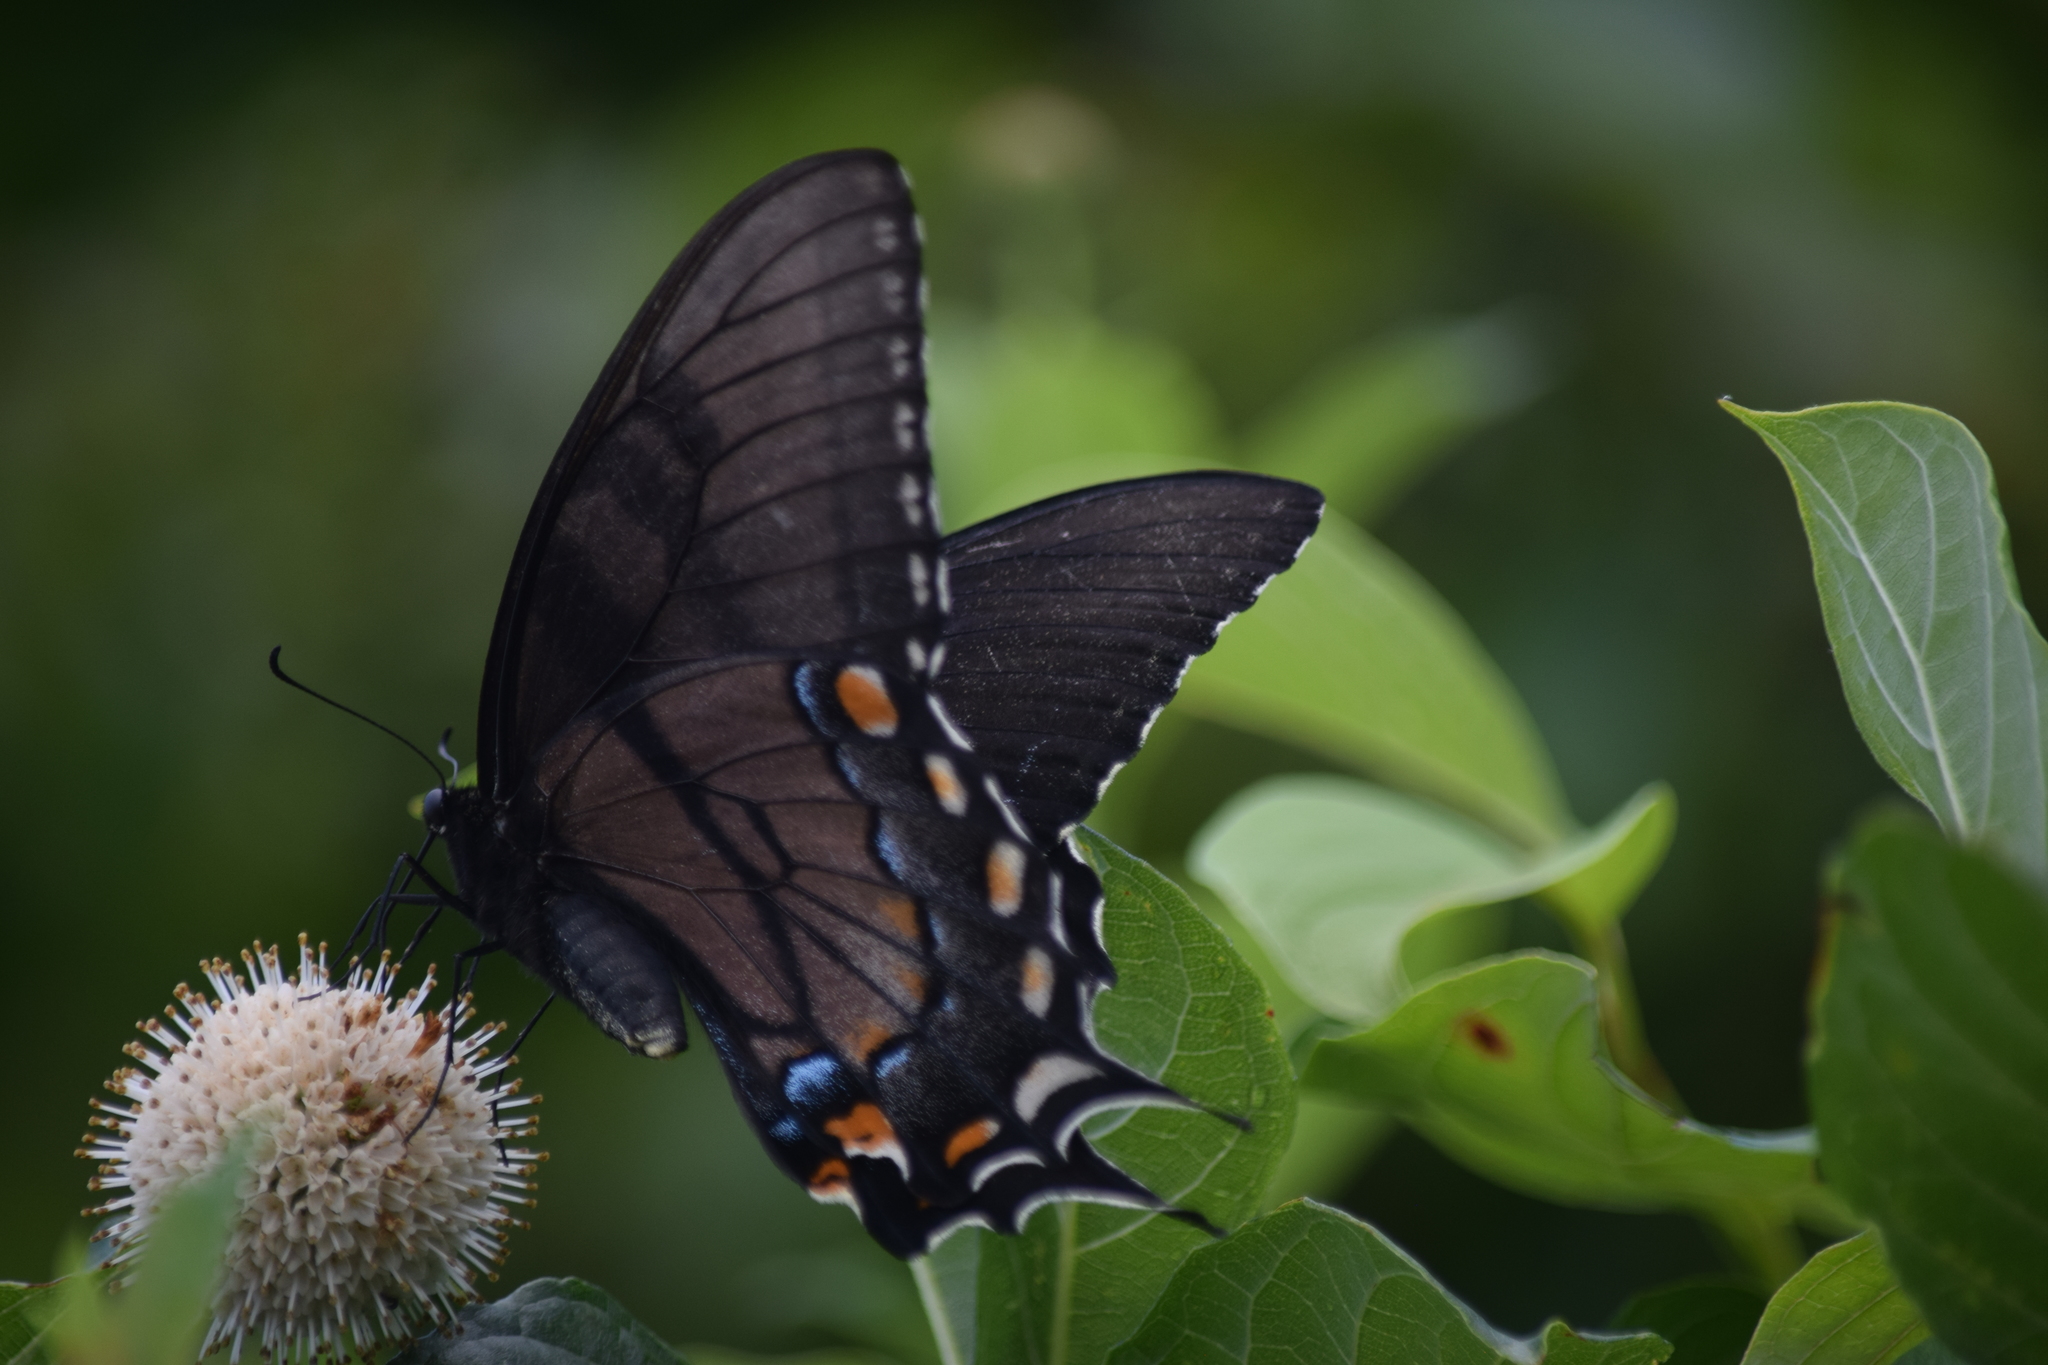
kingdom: Animalia
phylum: Arthropoda
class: Insecta
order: Lepidoptera
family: Papilionidae
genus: Papilio
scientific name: Papilio glaucus
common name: Tiger swallowtail
